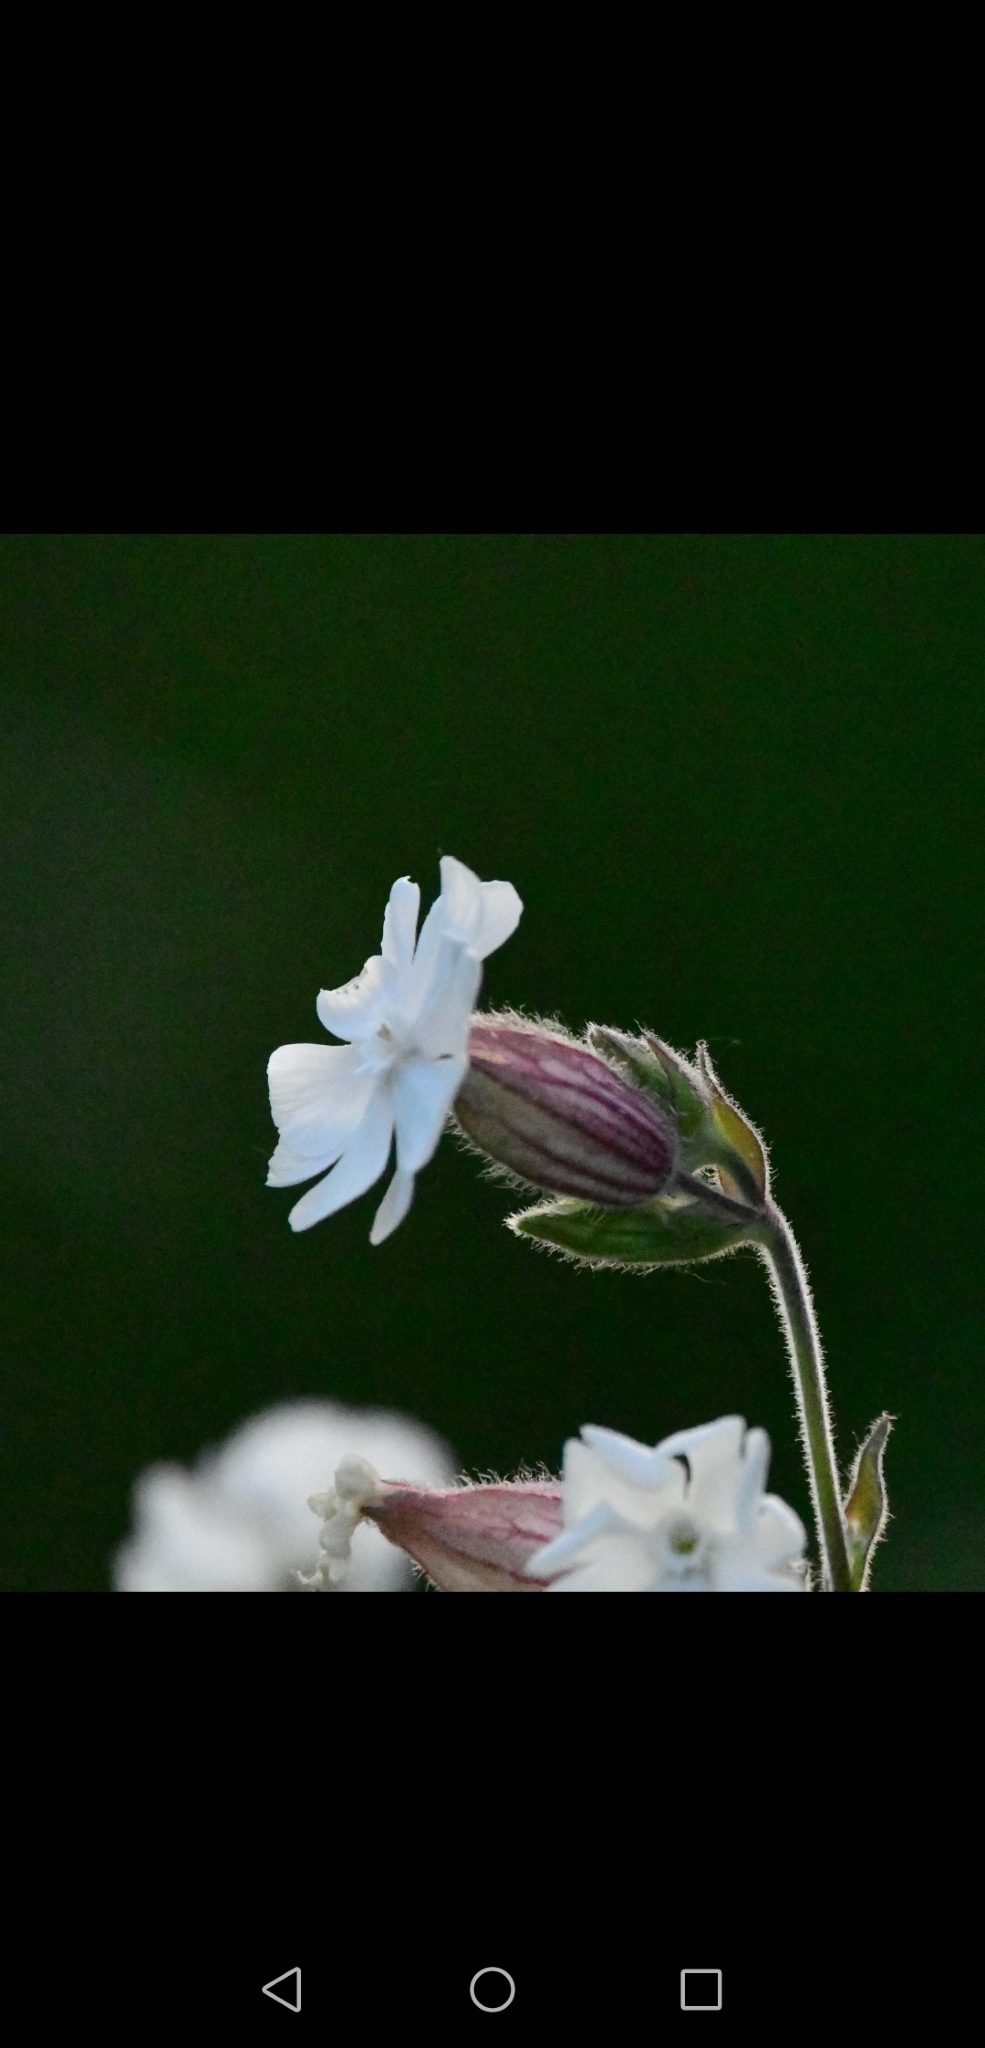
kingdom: Plantae
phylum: Tracheophyta
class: Magnoliopsida
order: Caryophyllales
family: Caryophyllaceae
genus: Silene
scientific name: Silene latifolia
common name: White campion
